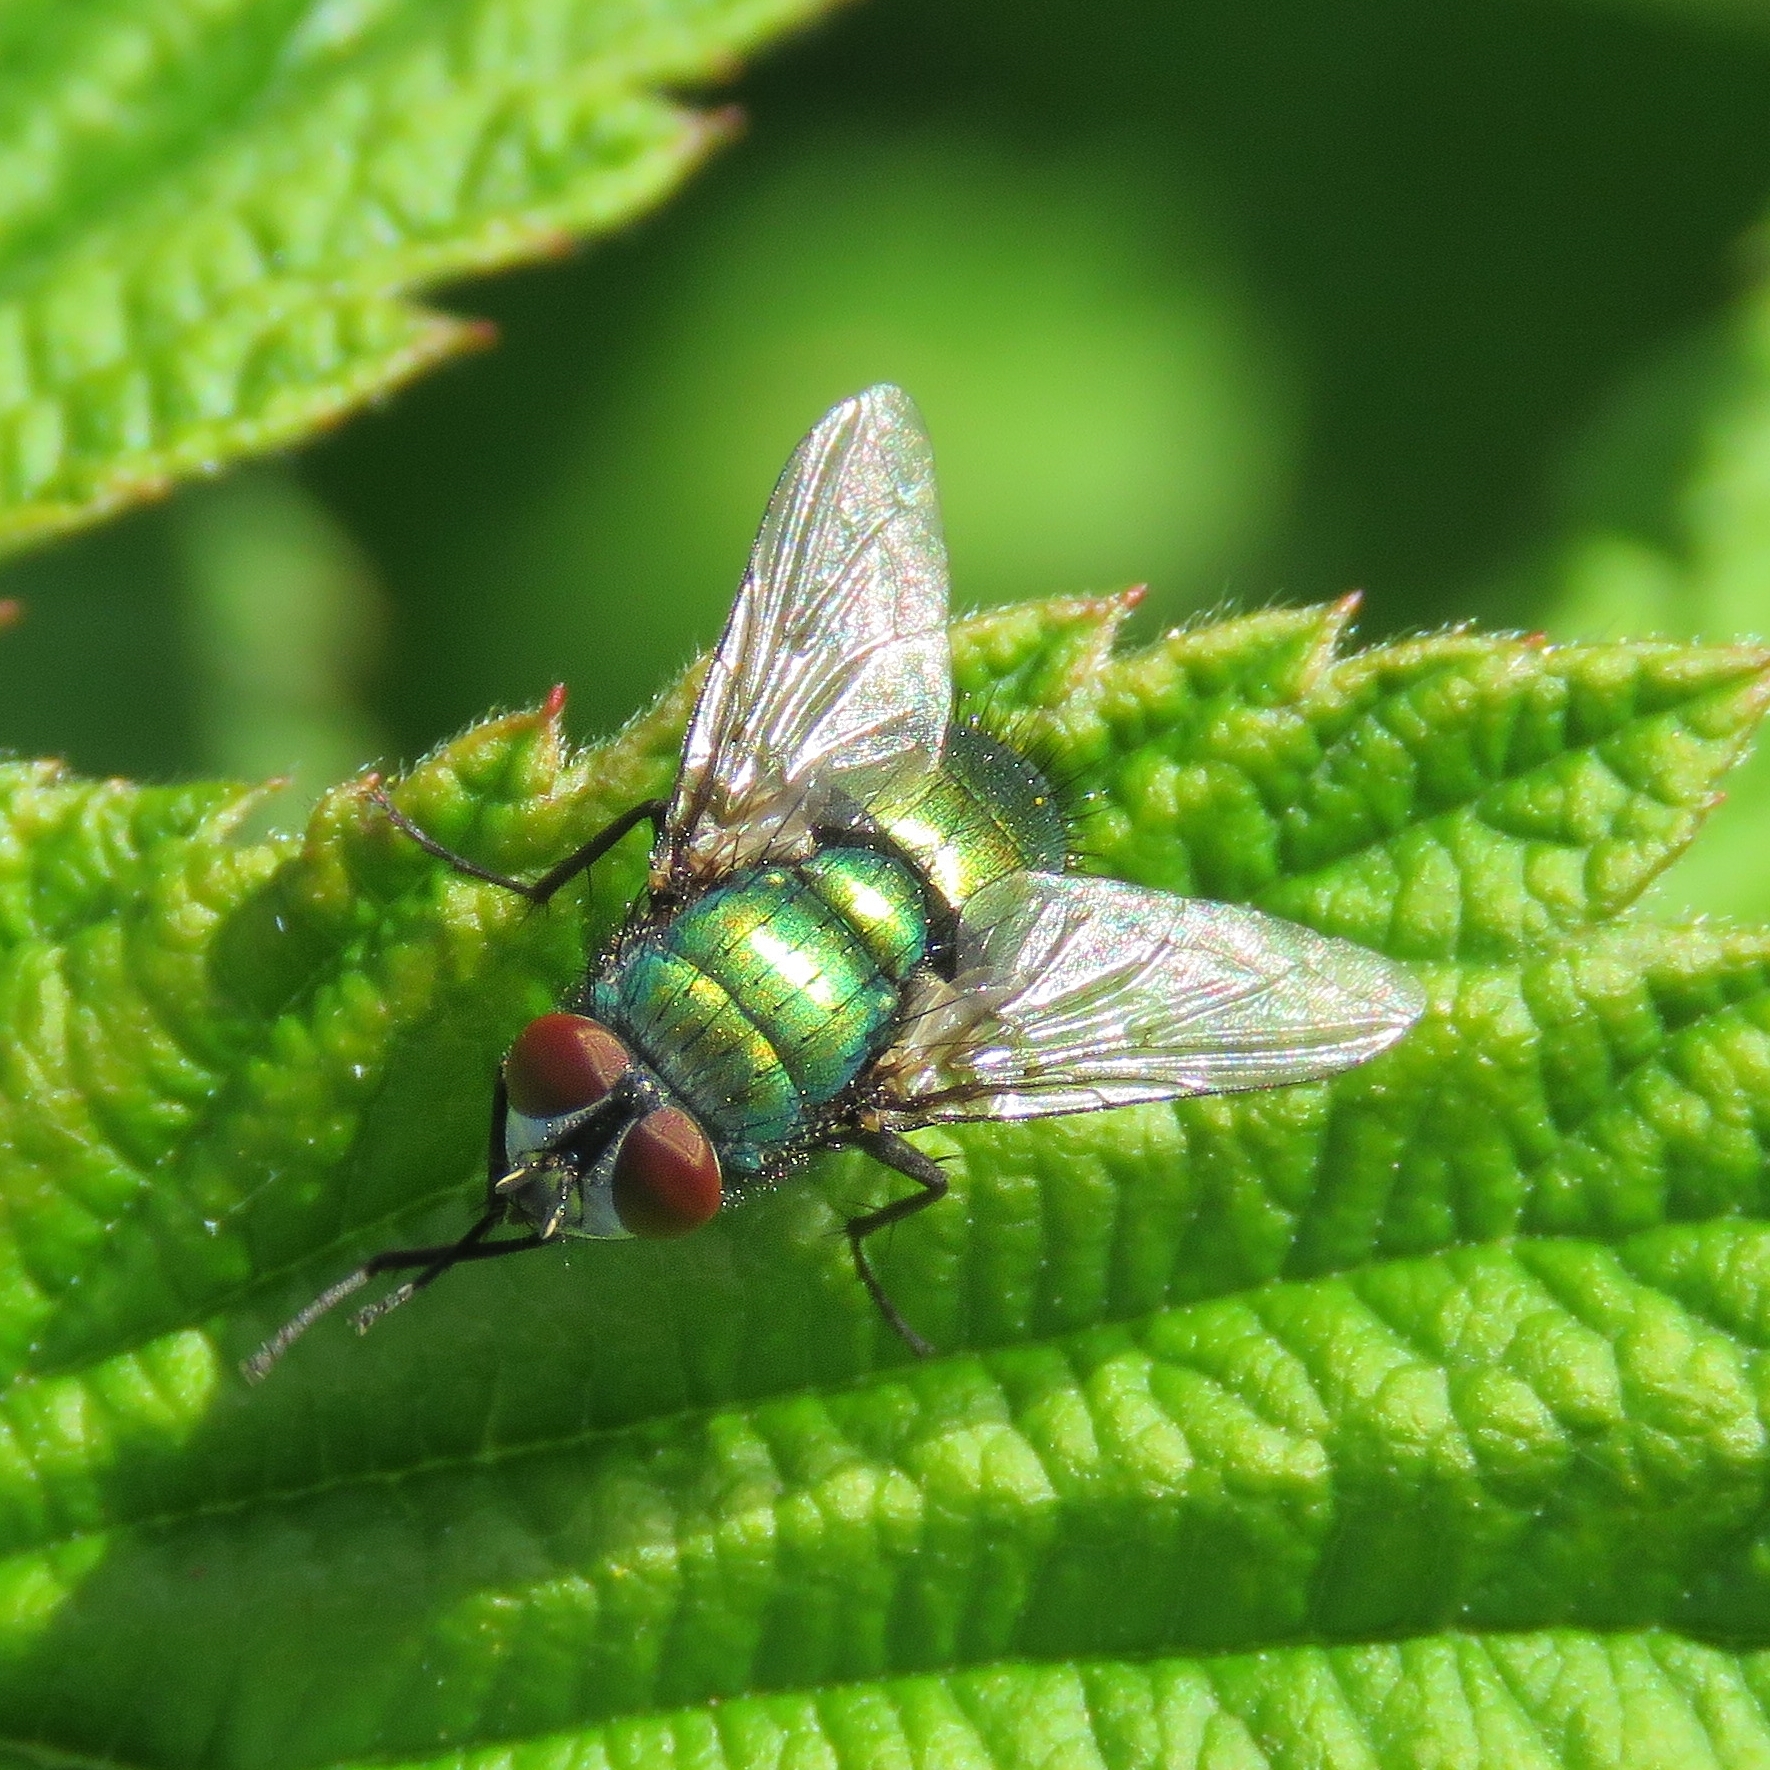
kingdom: Animalia
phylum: Arthropoda
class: Insecta
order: Diptera
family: Calliphoridae
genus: Lucilia
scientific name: Lucilia sericata
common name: Blow fly
